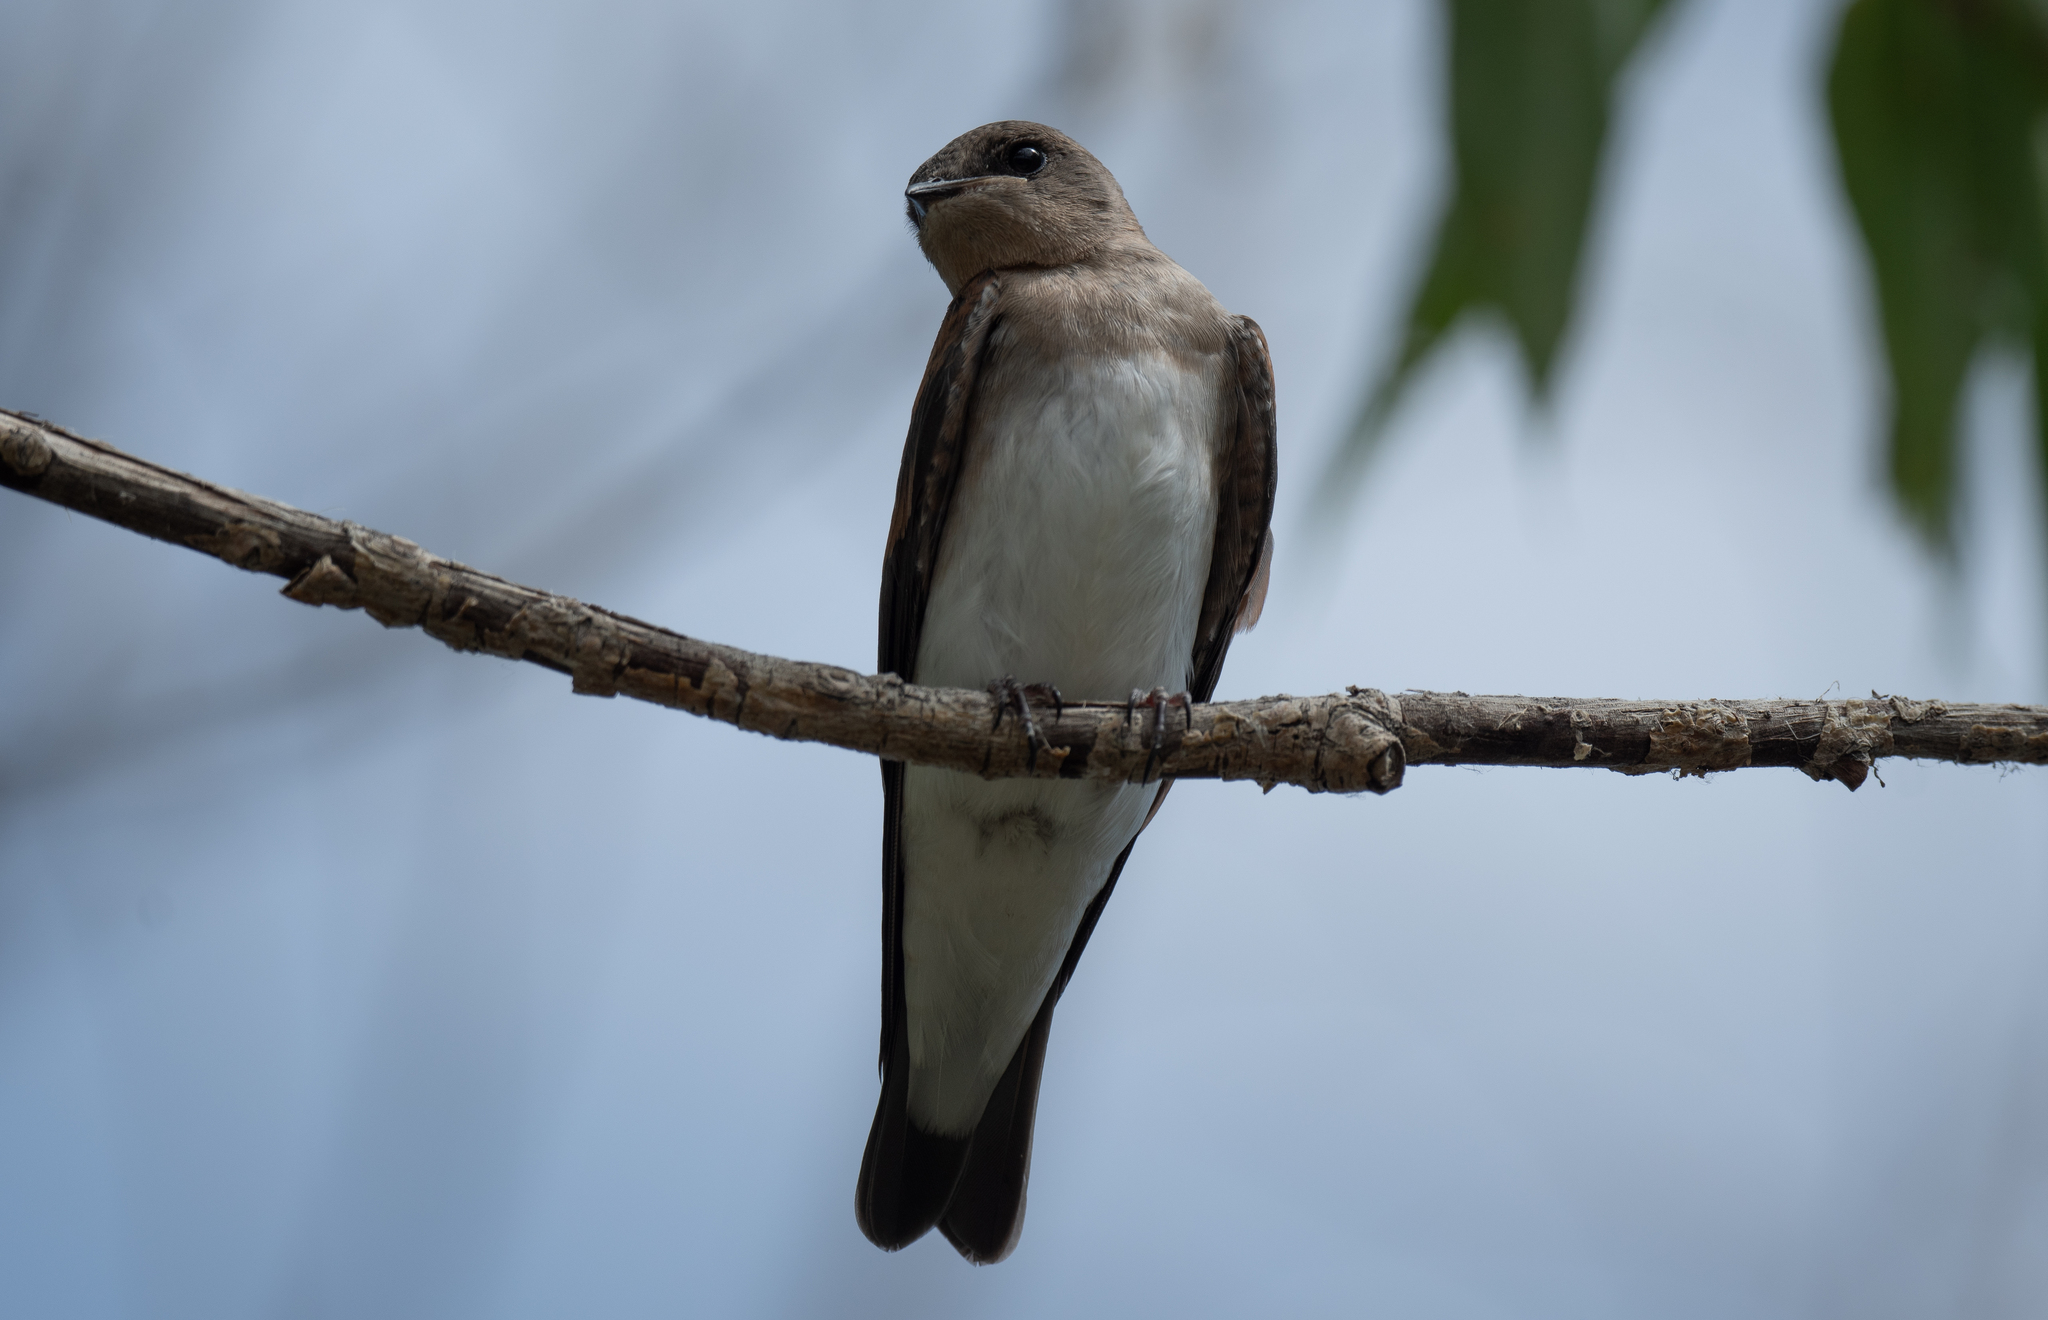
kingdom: Animalia
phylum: Chordata
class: Aves
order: Passeriformes
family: Hirundinidae
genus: Stelgidopteryx
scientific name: Stelgidopteryx serripennis
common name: Northern rough-winged swallow
